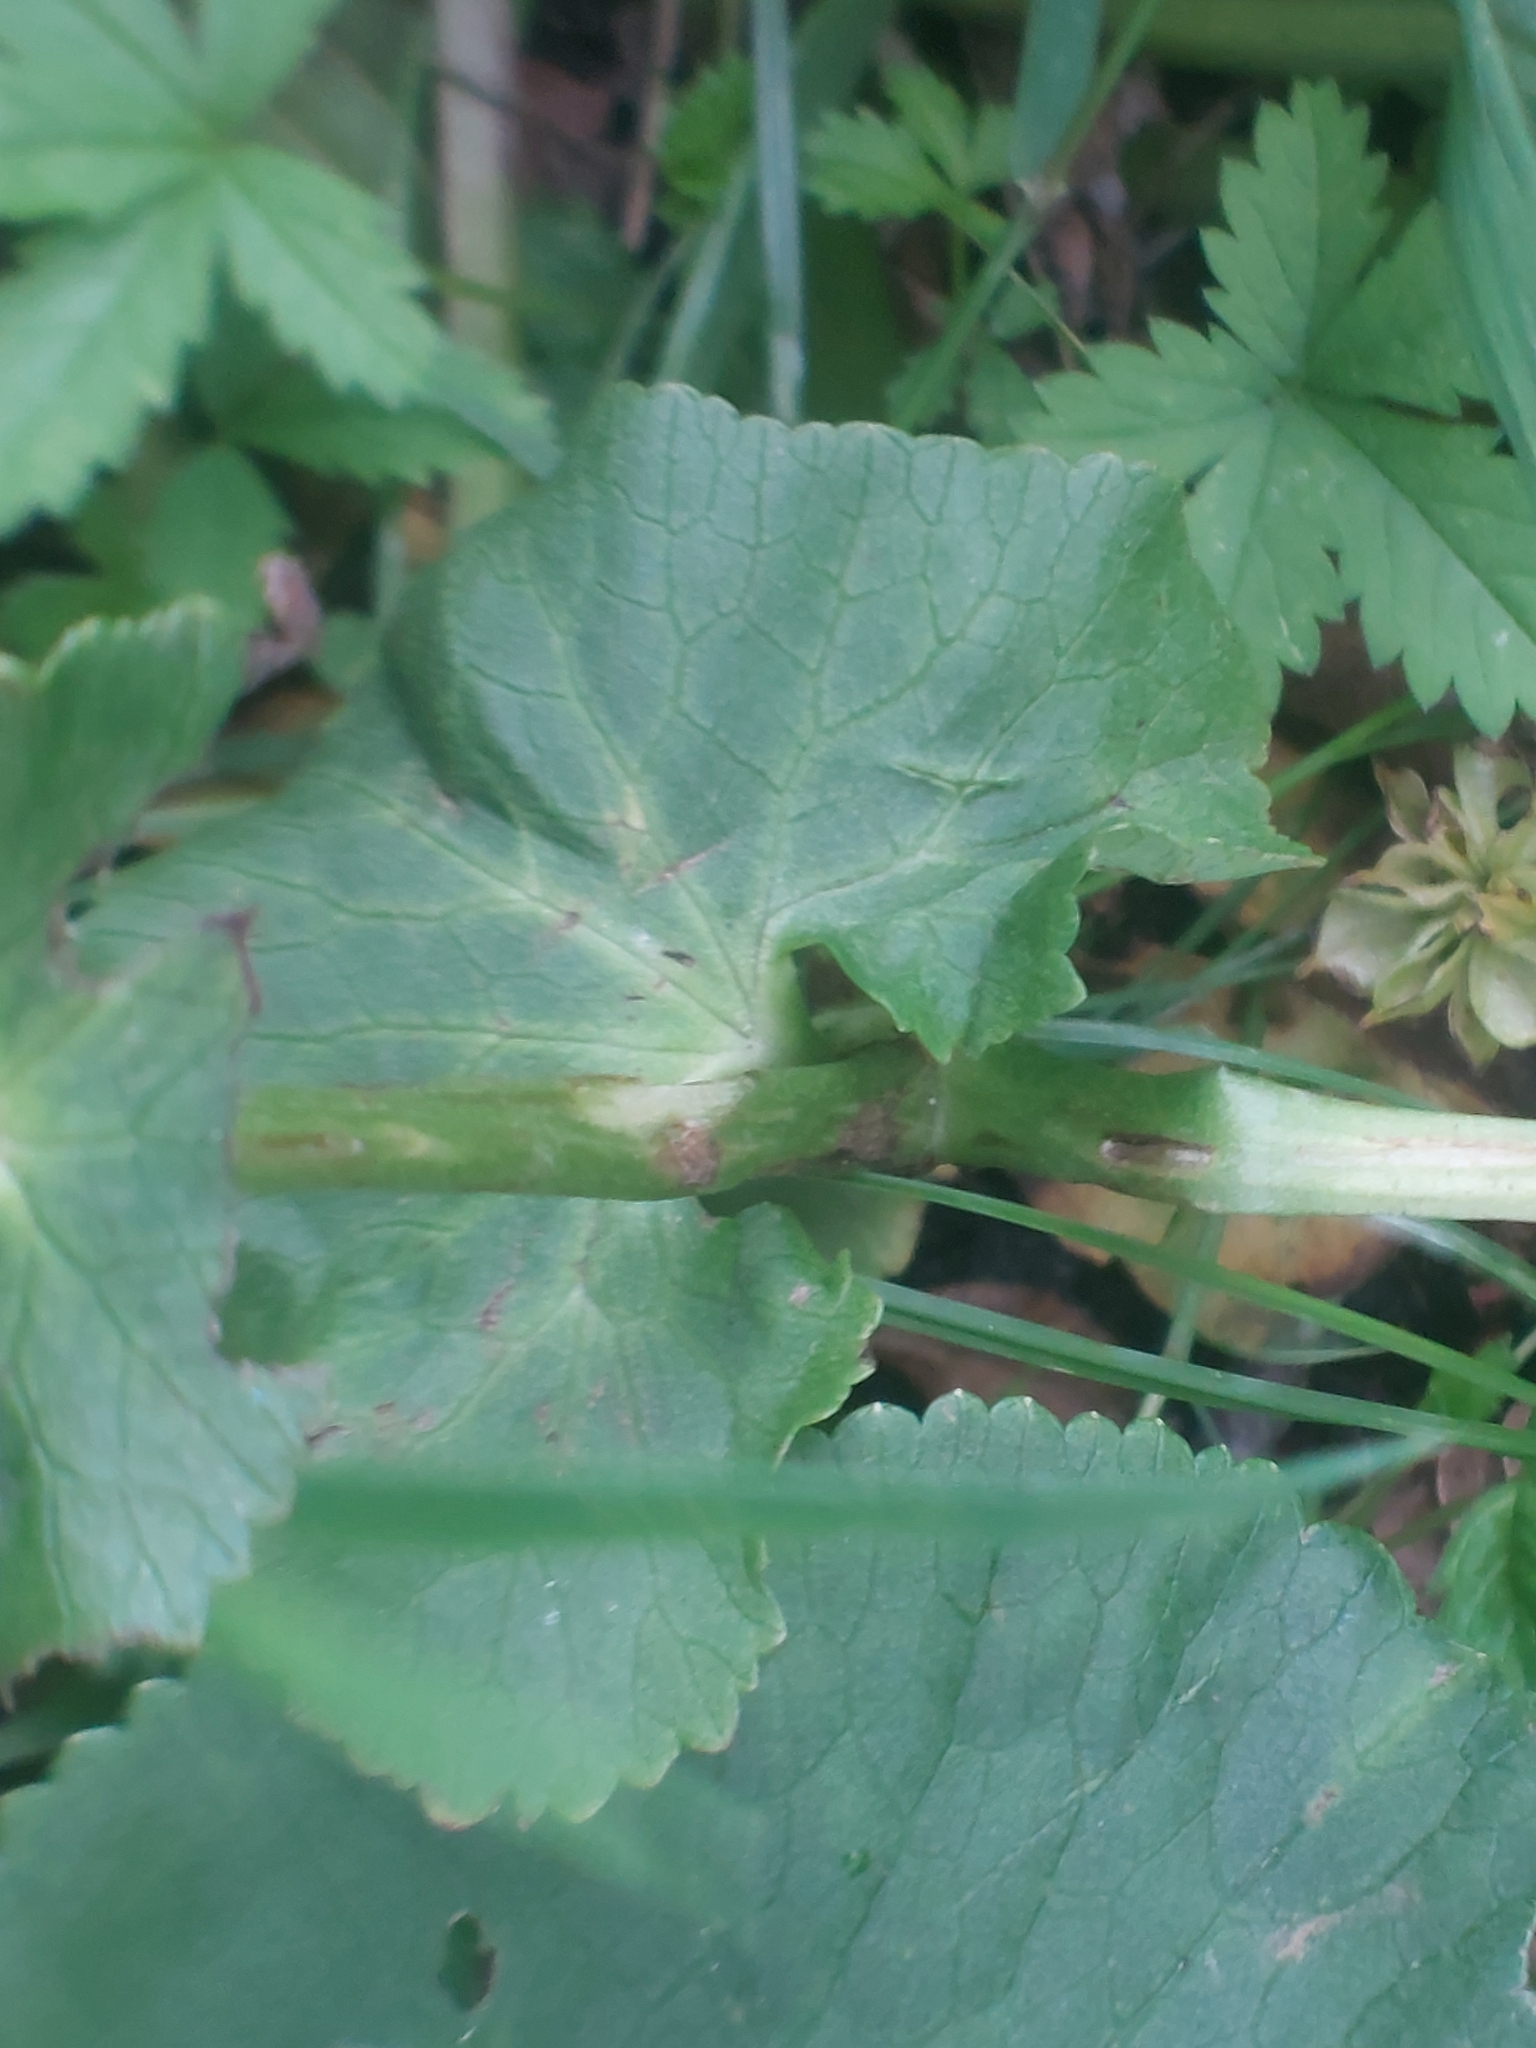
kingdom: Plantae
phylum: Tracheophyta
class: Magnoliopsida
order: Ranunculales
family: Ranunculaceae
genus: Caltha
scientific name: Caltha palustris
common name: Marsh marigold
